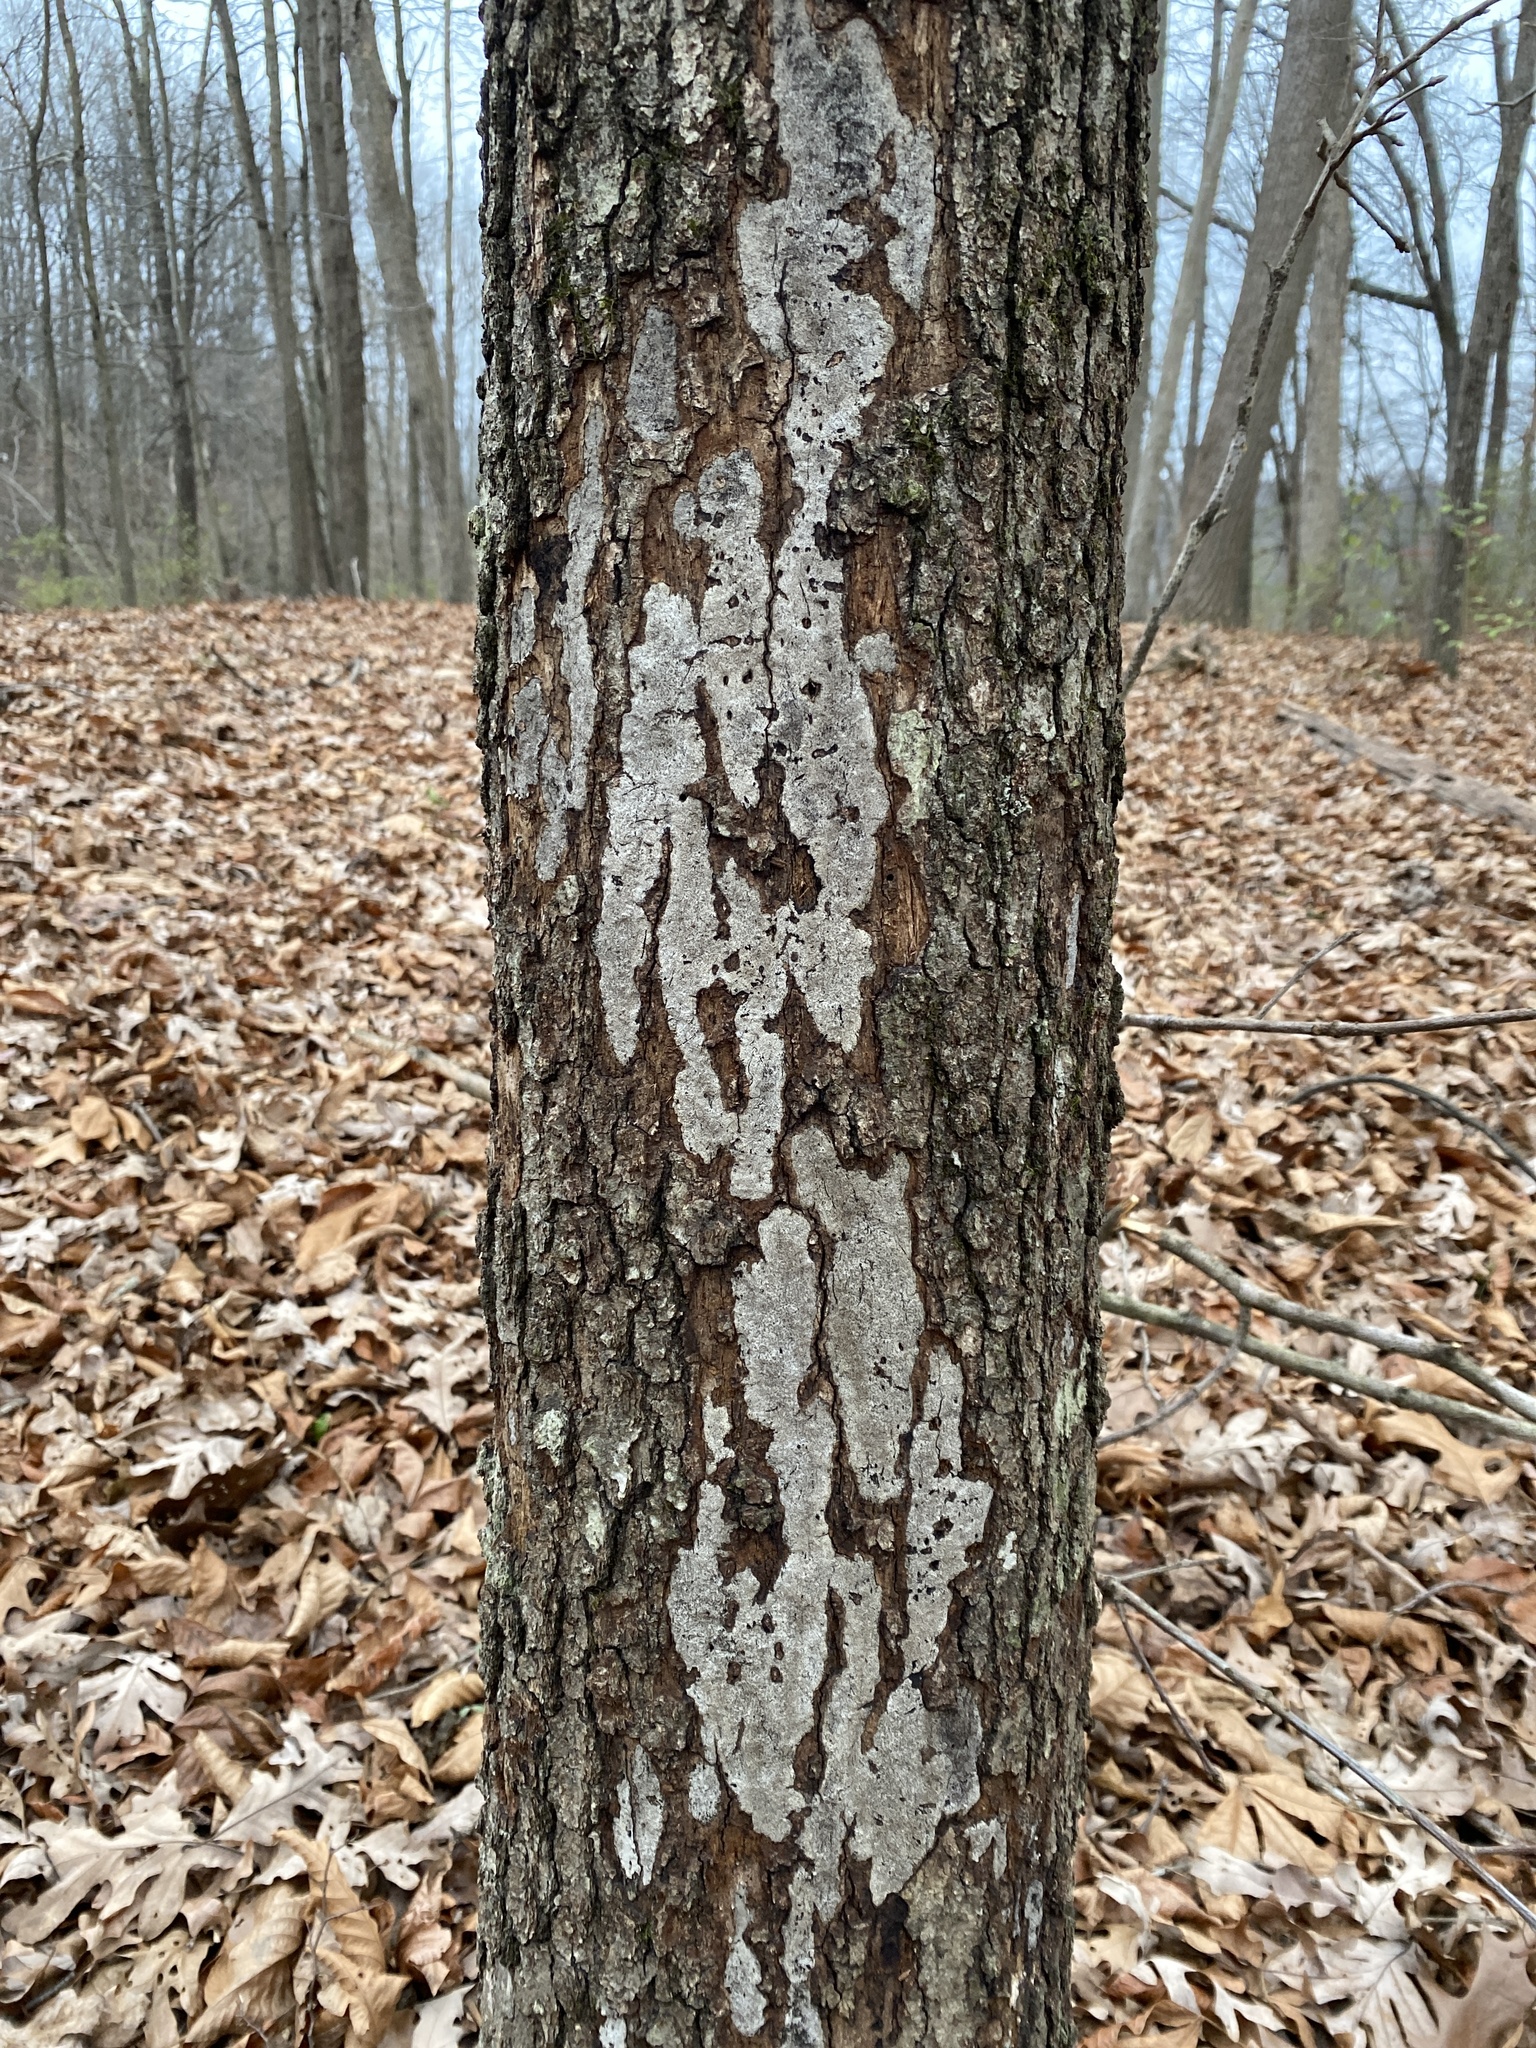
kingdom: Fungi
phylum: Ascomycota
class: Sordariomycetes
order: Xylariales
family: Graphostromataceae
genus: Biscogniauxia
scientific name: Biscogniauxia atropunctata
